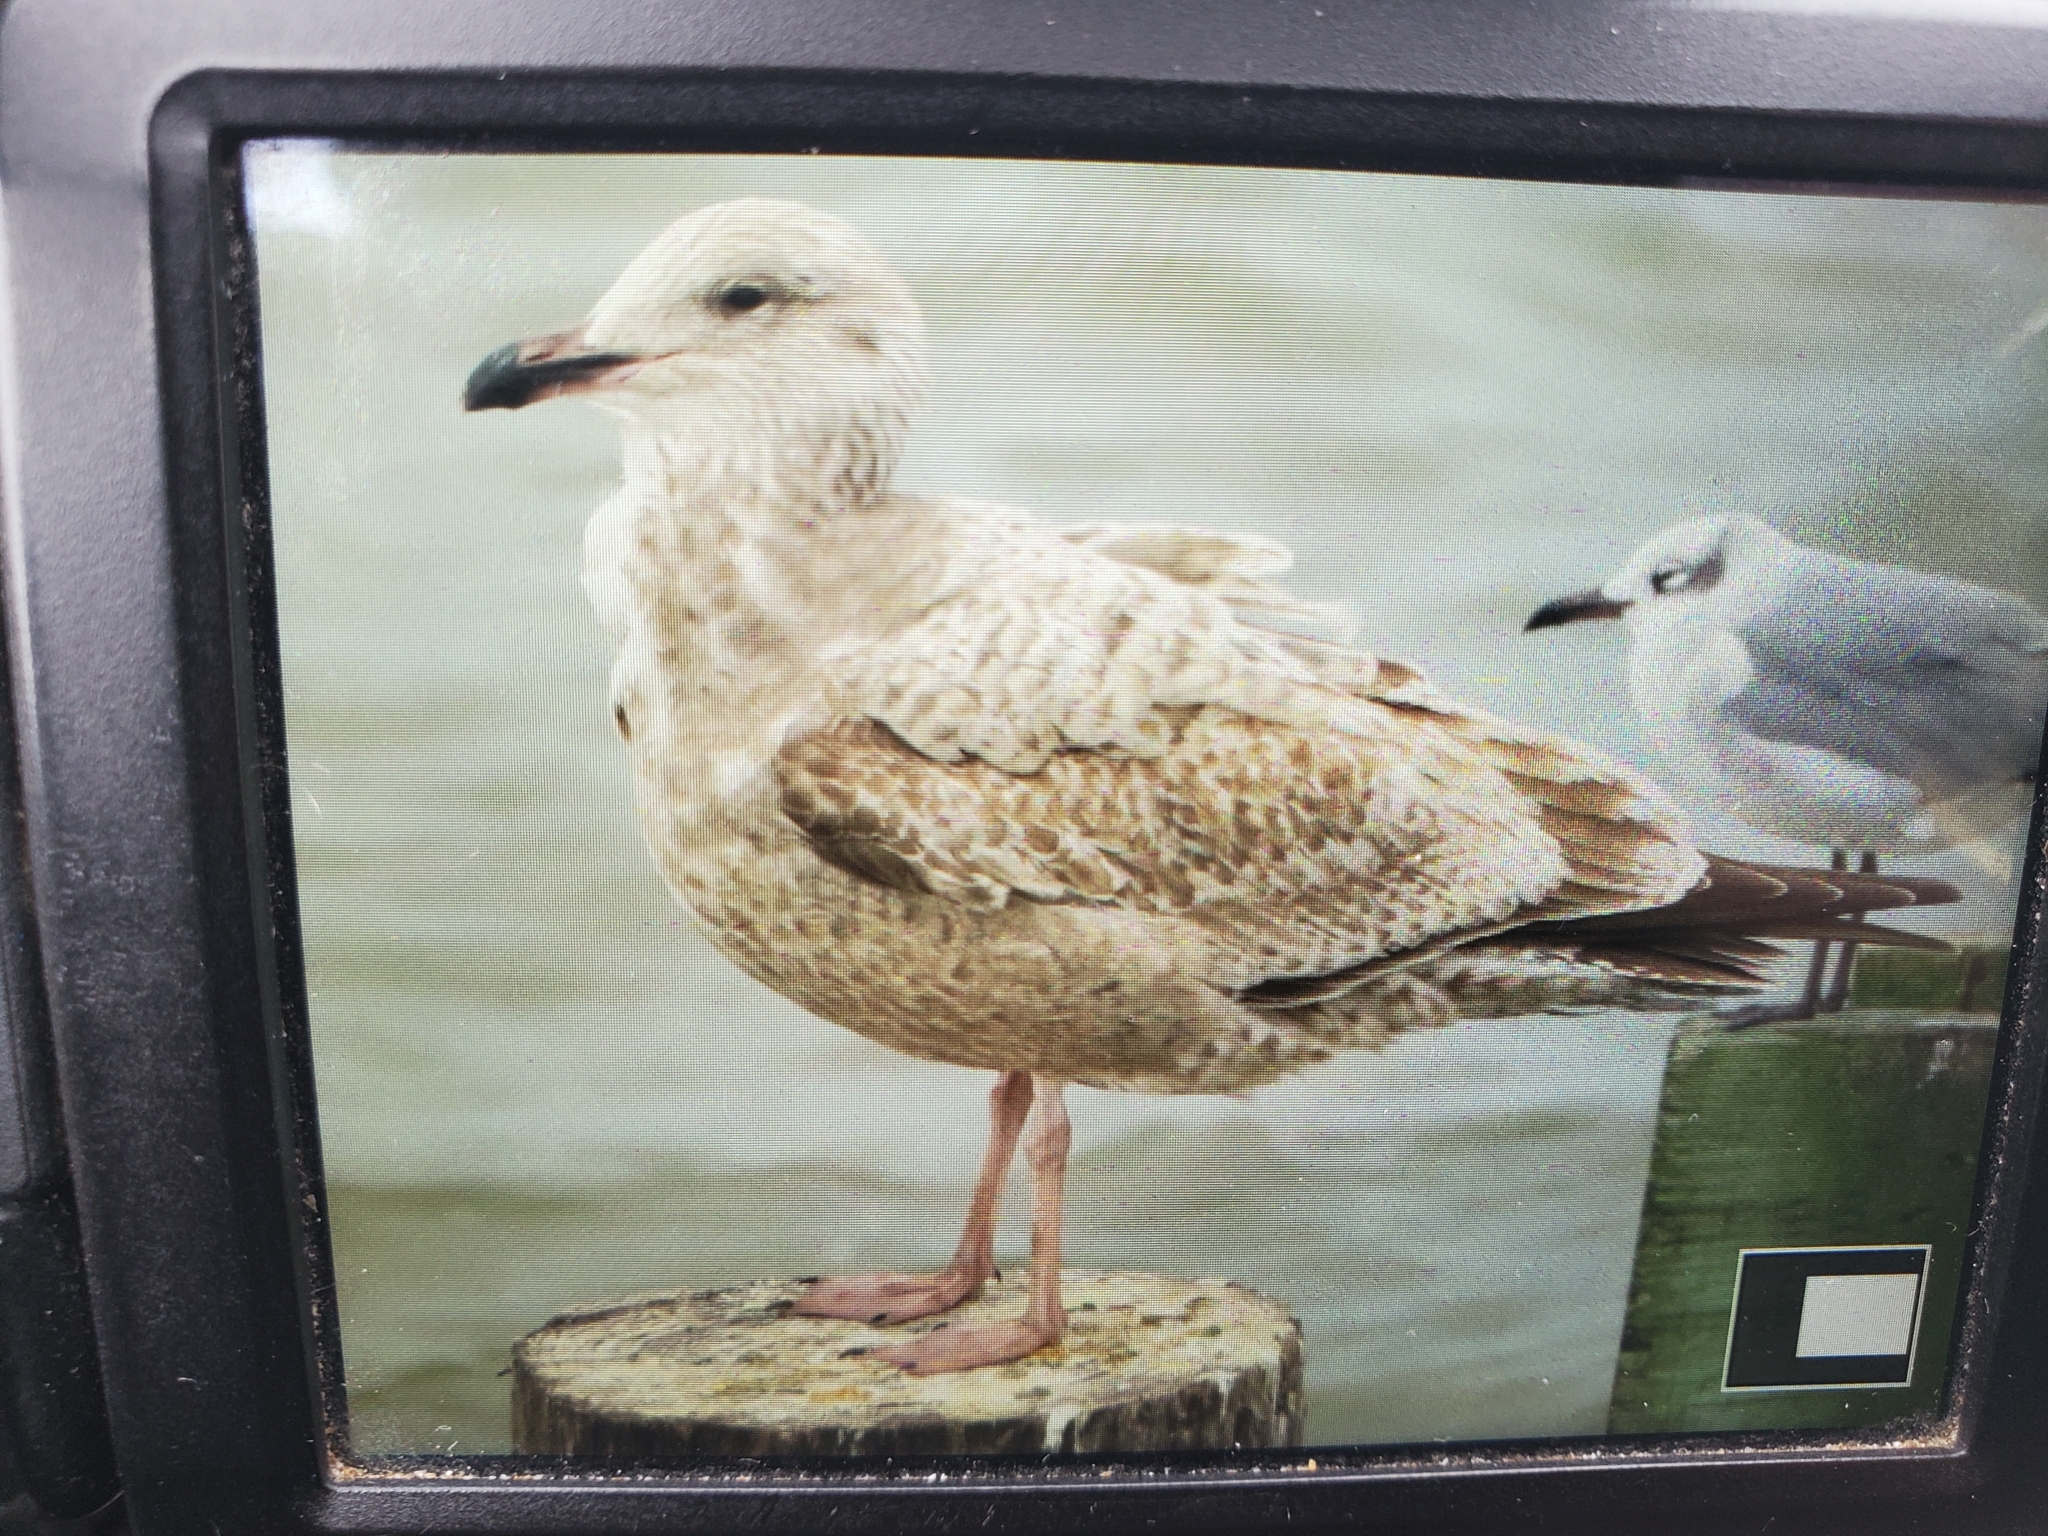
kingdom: Animalia
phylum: Chordata
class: Aves
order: Charadriiformes
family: Laridae
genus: Larus
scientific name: Larus argentatus
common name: Herring gull
